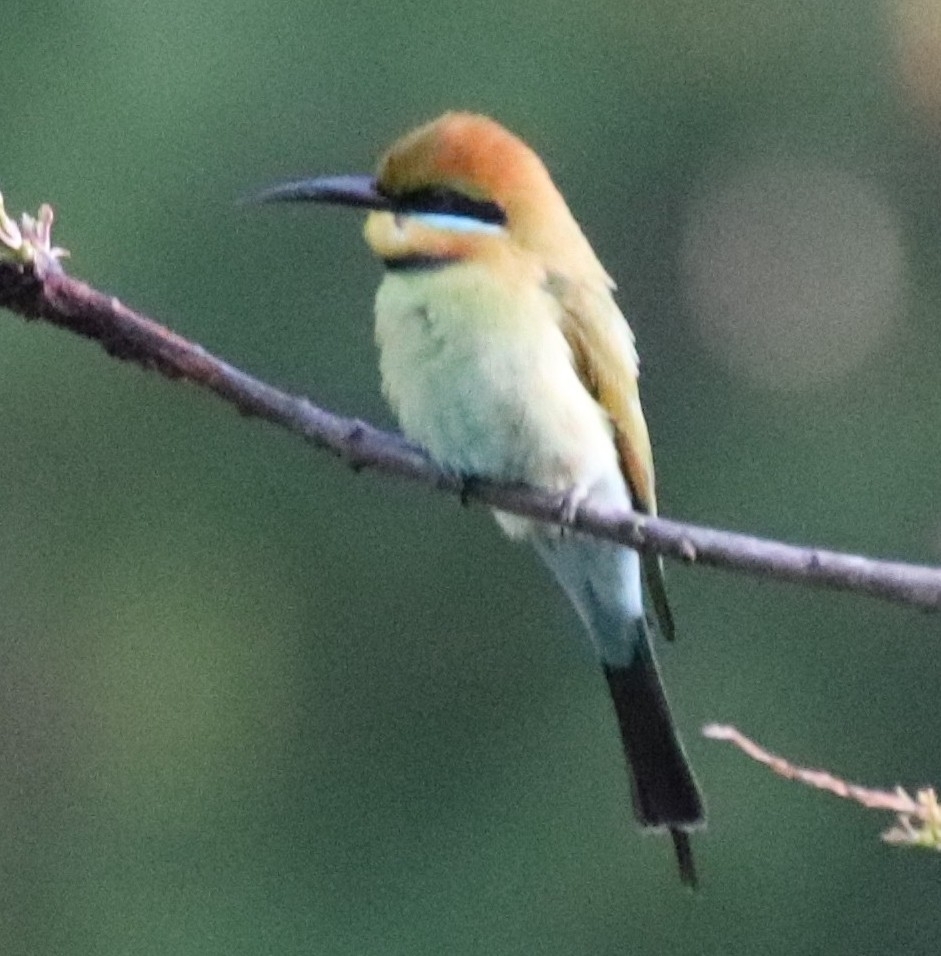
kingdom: Animalia
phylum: Chordata
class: Aves
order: Coraciiformes
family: Meropidae
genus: Merops
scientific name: Merops ornatus
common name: Rainbow bee-eater
